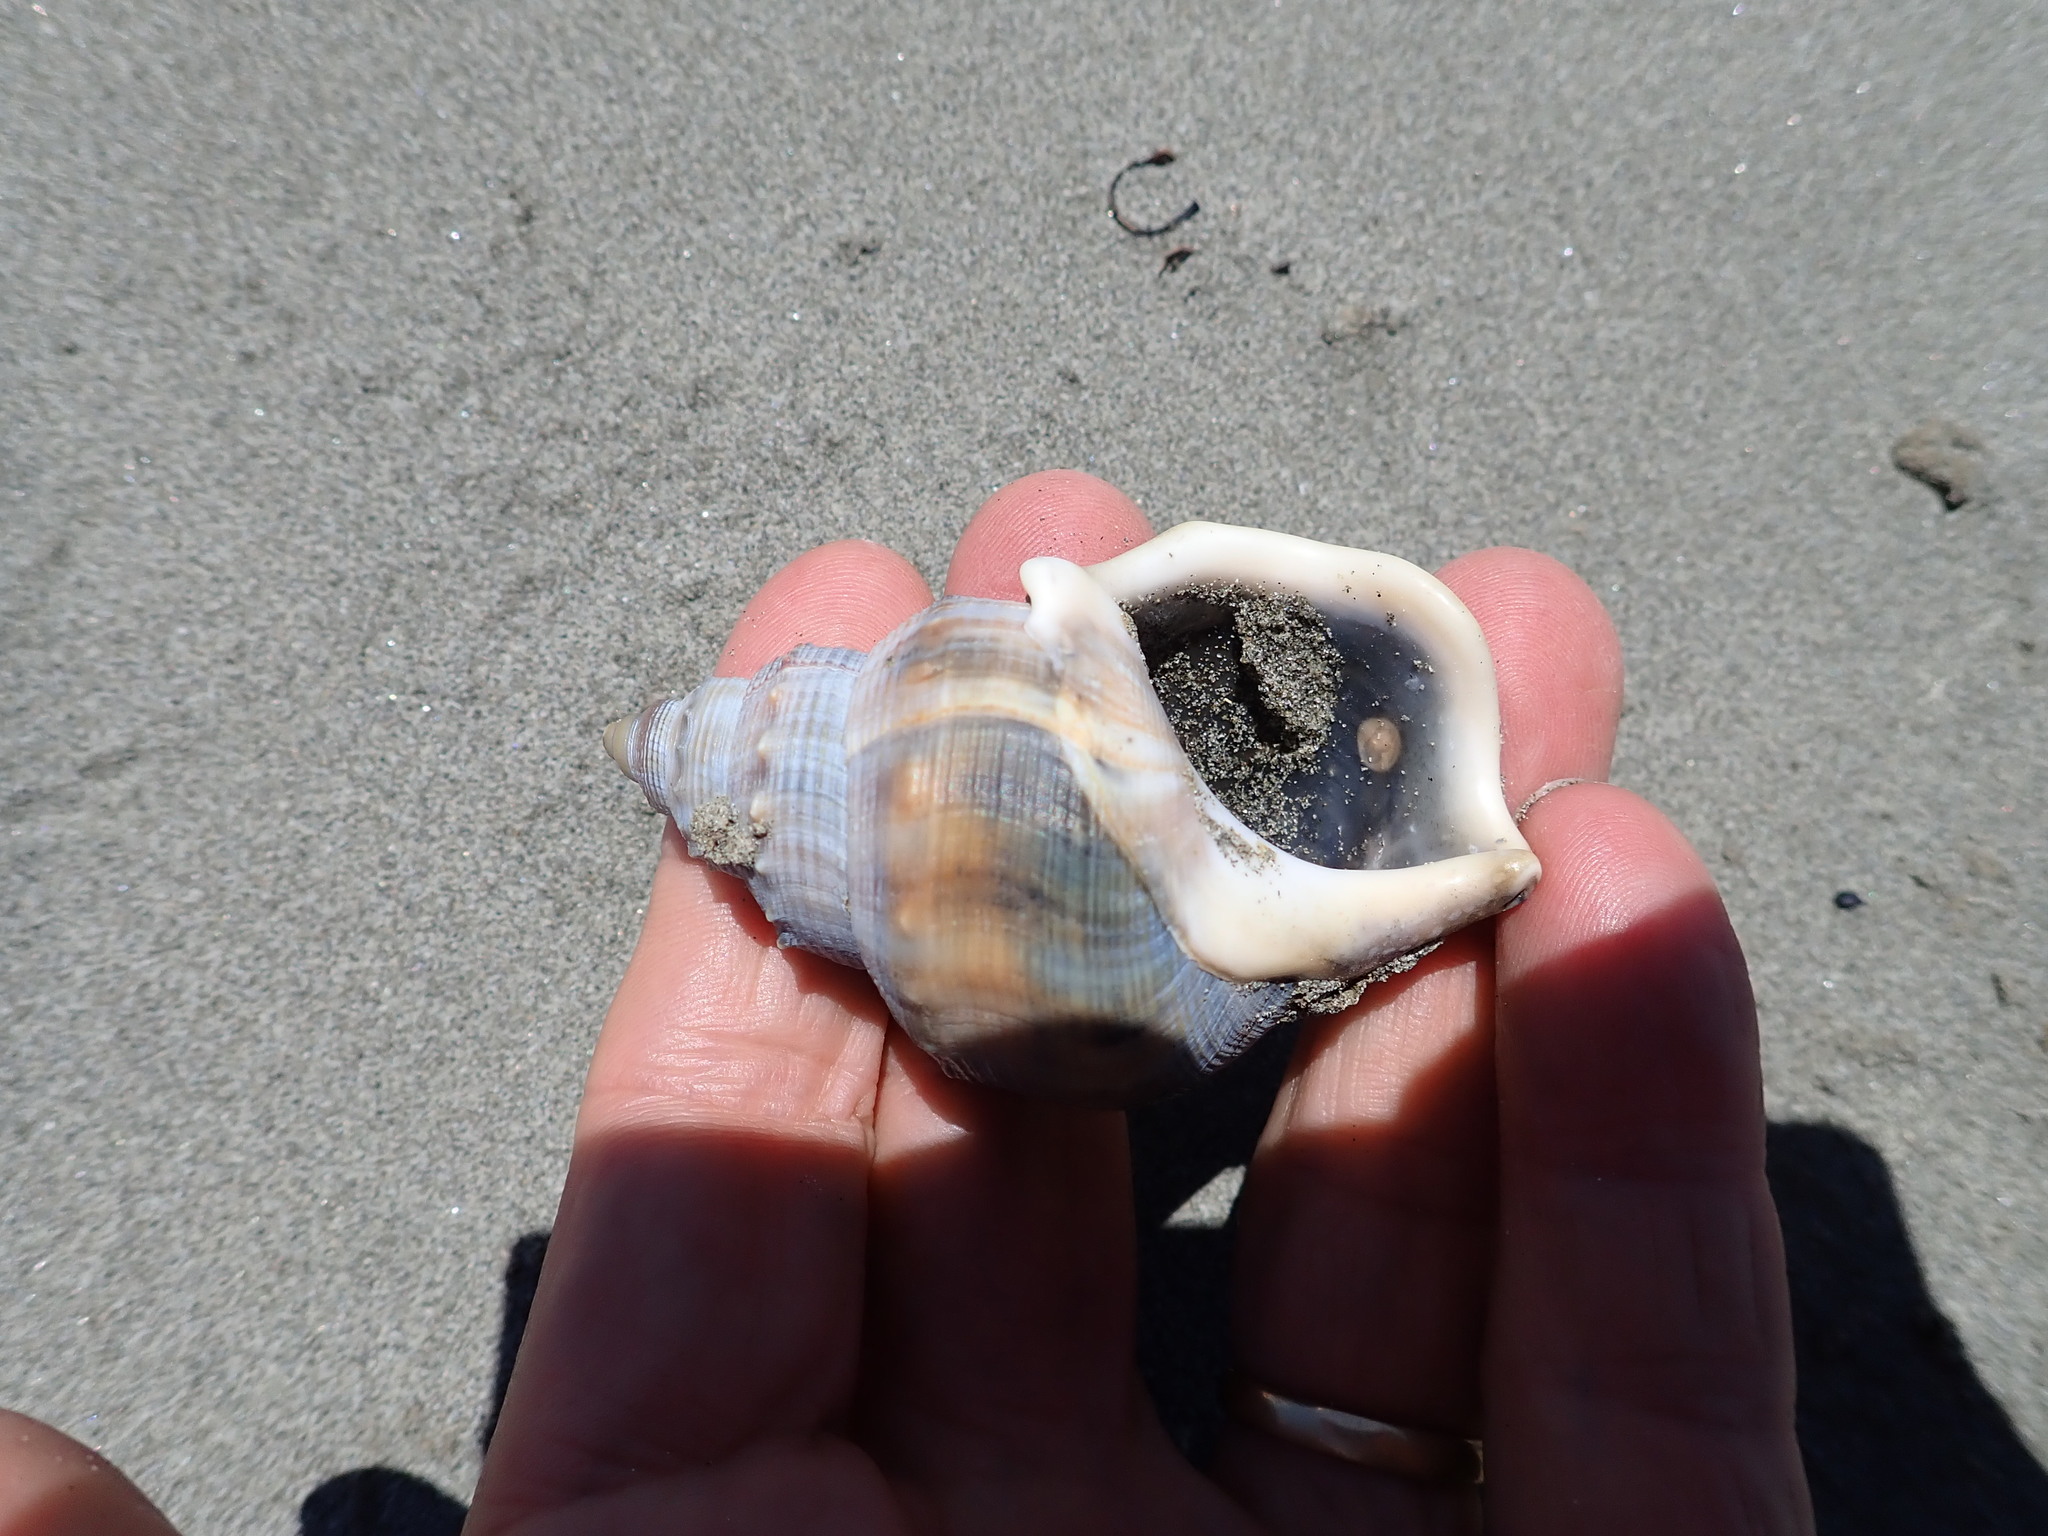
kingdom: Animalia
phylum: Mollusca
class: Gastropoda
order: Littorinimorpha
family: Struthiolariidae
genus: Struthiolaria
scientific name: Struthiolaria papulosa
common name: Large ostrich foot
